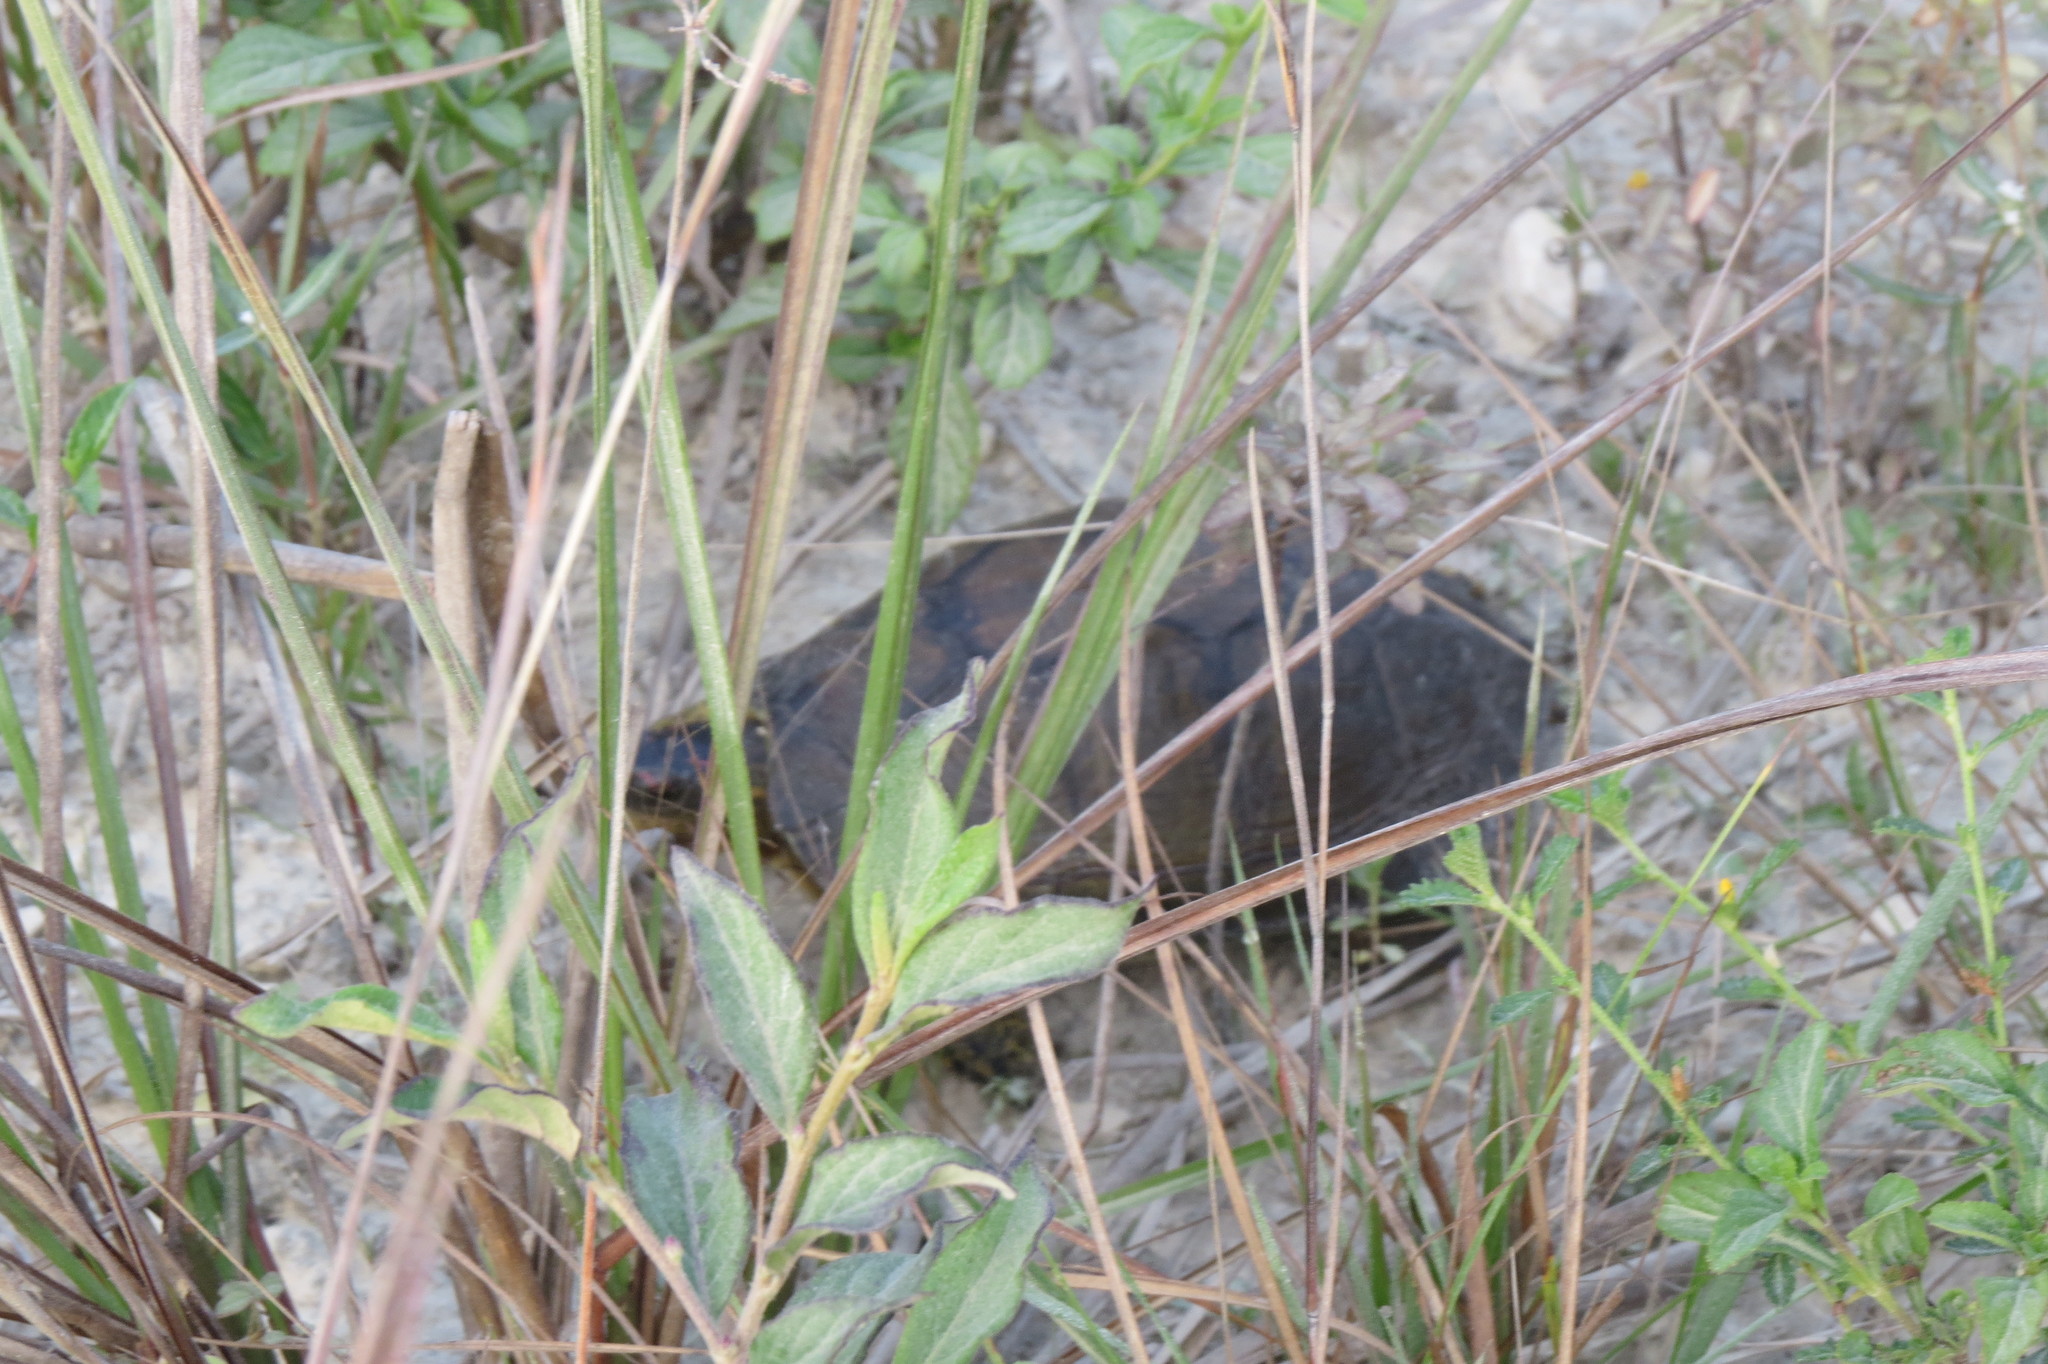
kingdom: Animalia
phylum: Chordata
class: Testudines
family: Geoemydidae
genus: Rhinoclemmys
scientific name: Rhinoclemmys areolata
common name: Furrowed wood turtle
